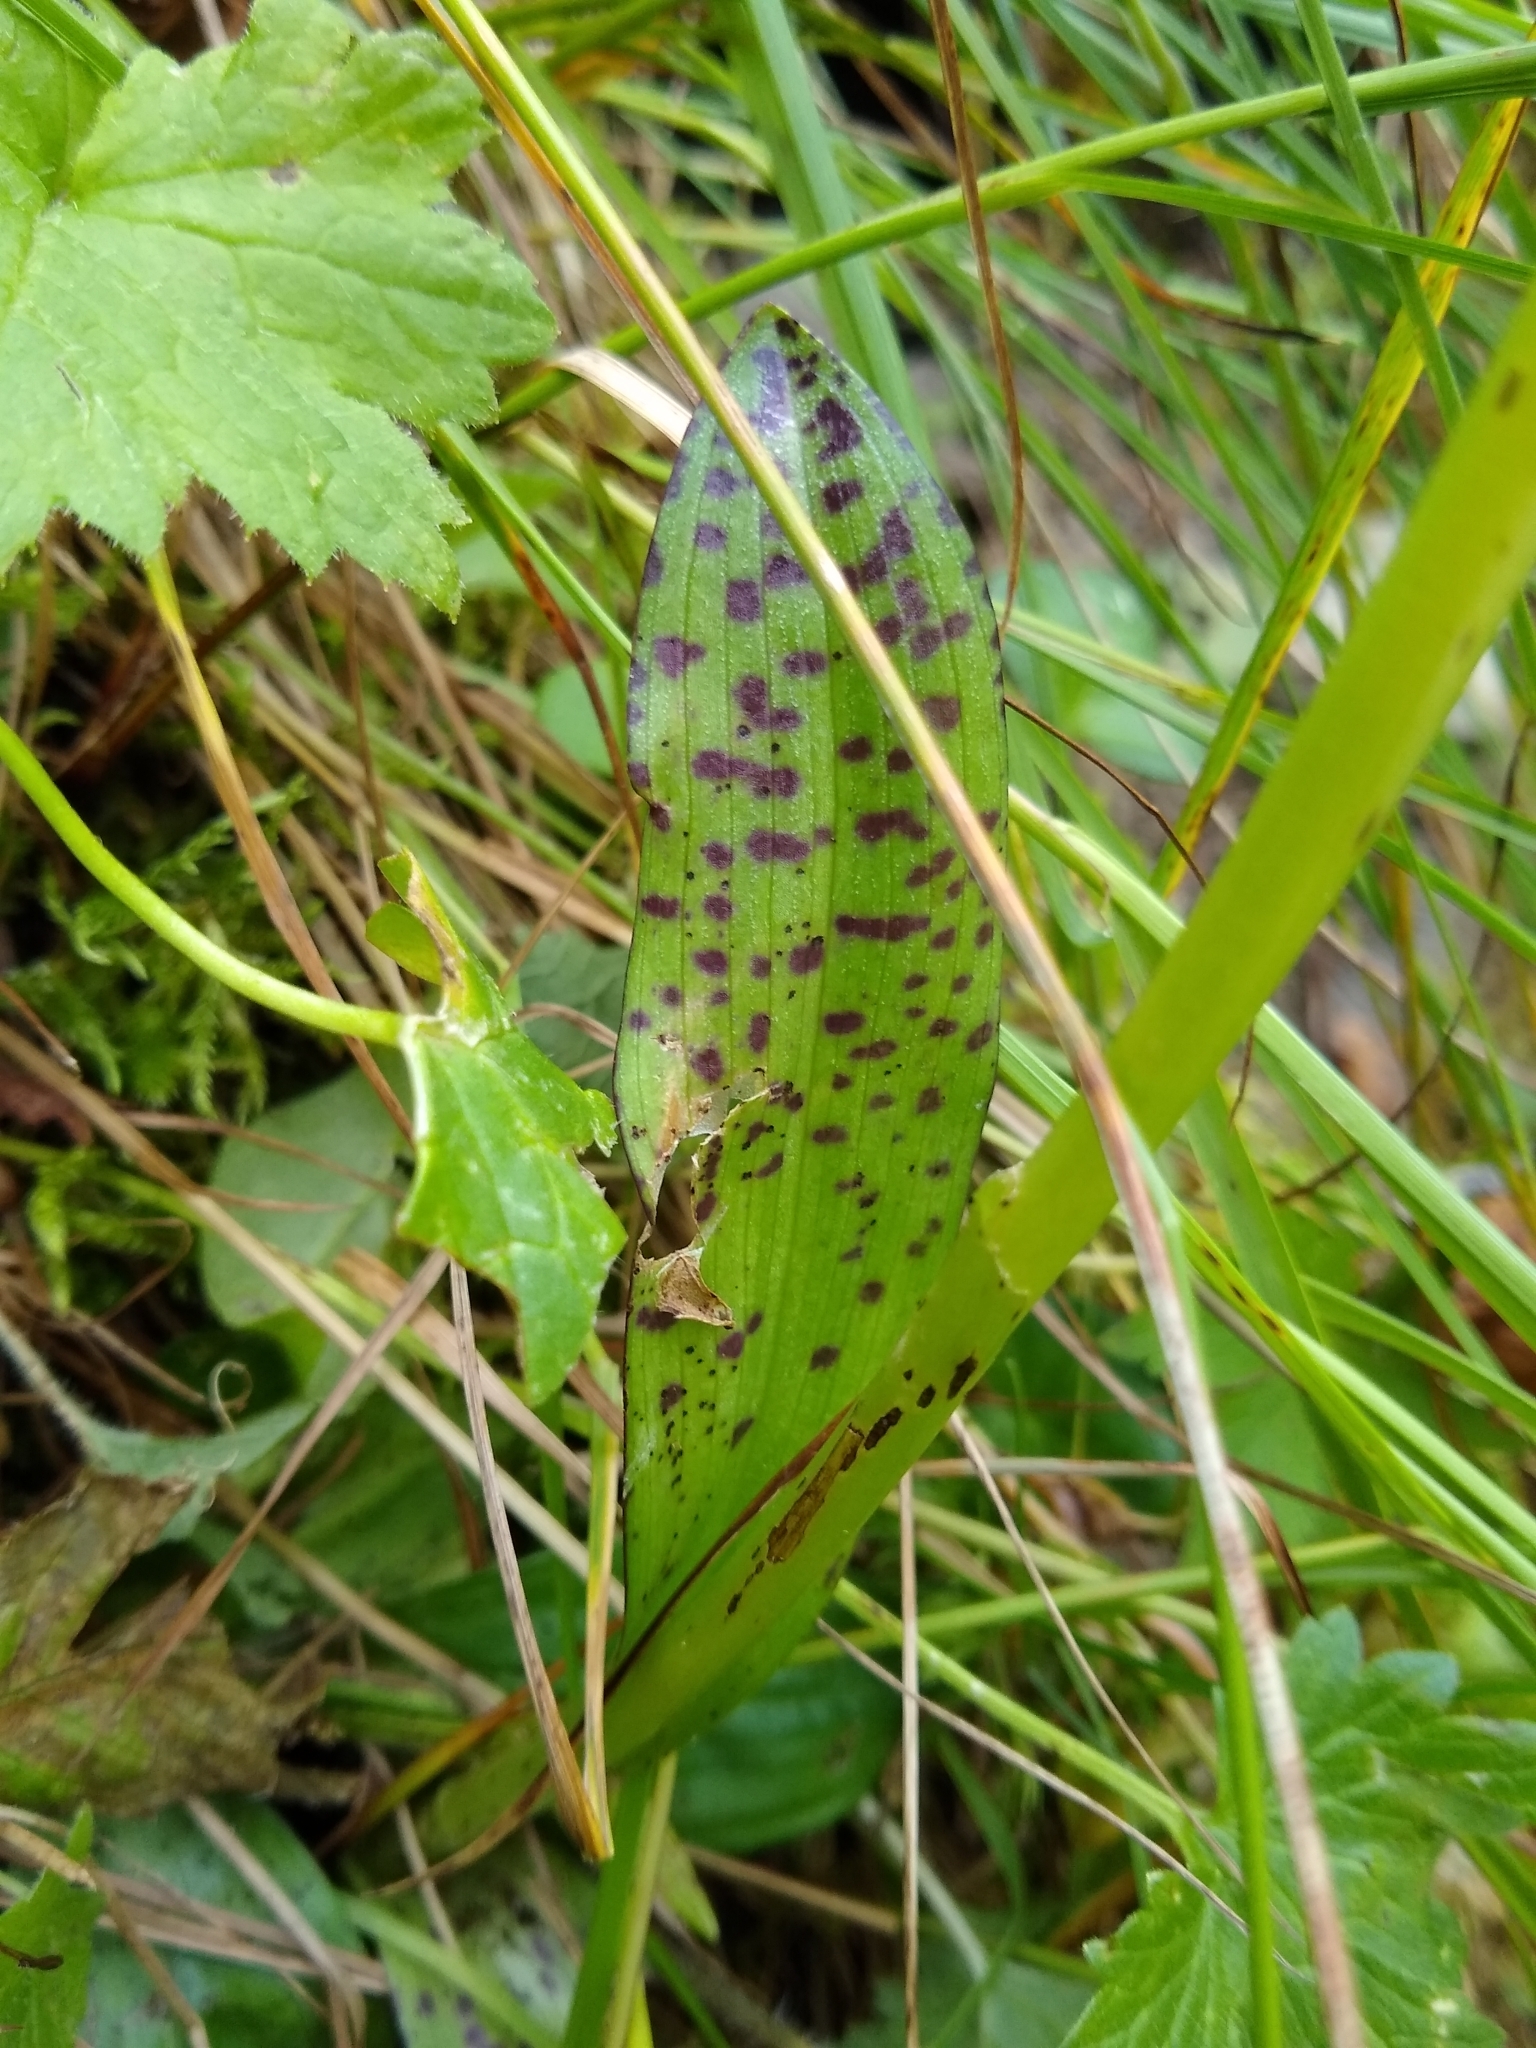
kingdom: Plantae
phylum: Tracheophyta
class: Liliopsida
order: Asparagales
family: Orchidaceae
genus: Dactylorhiza
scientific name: Dactylorhiza majalis
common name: Marsh orchid
